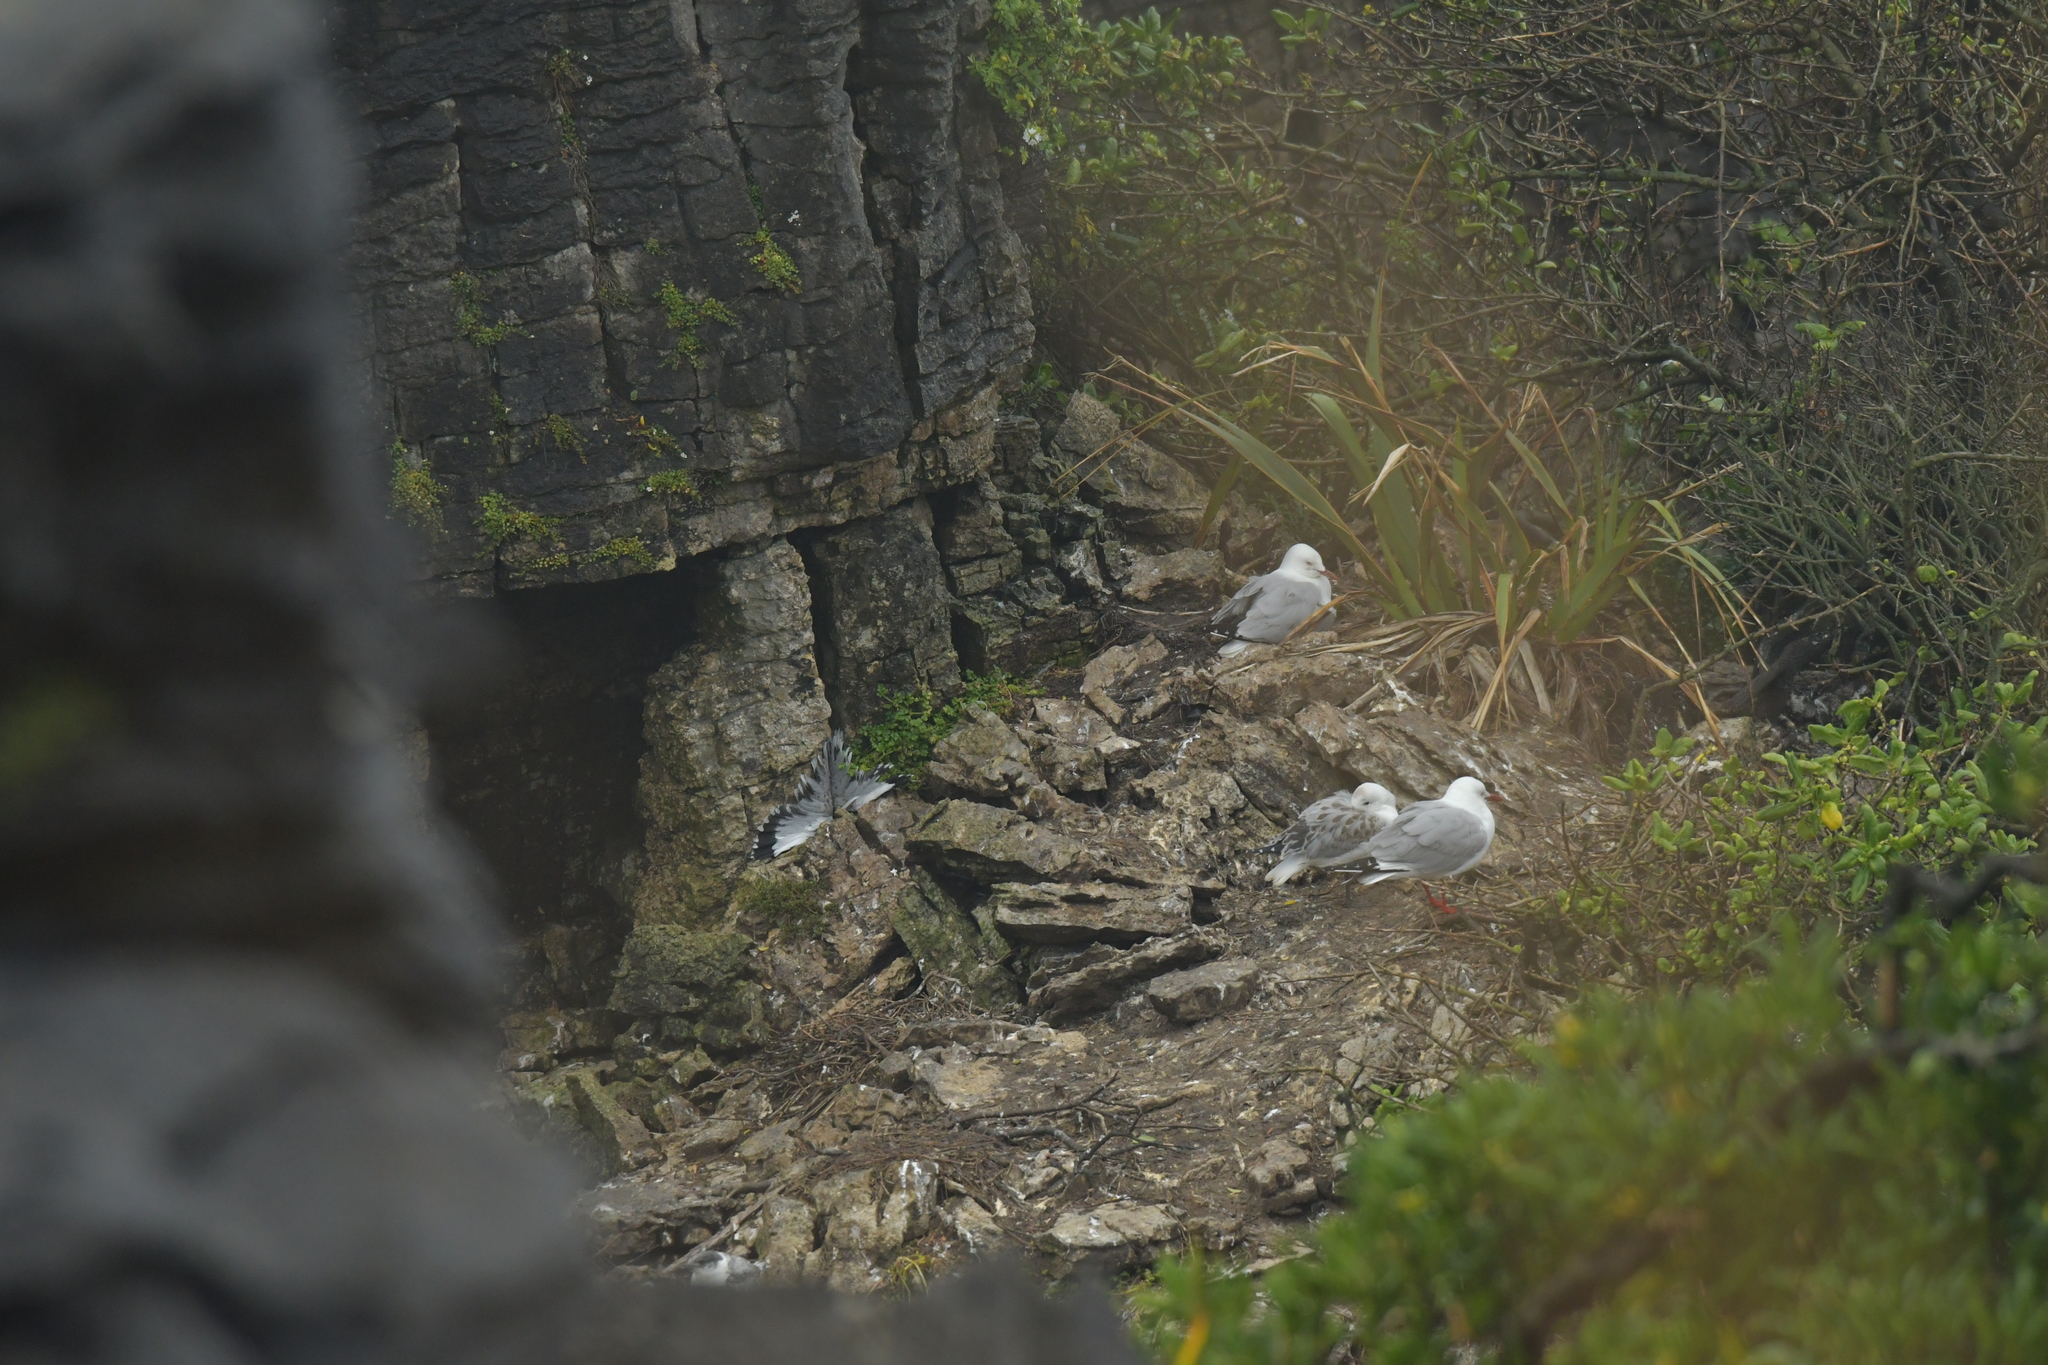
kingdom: Animalia
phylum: Chordata
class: Aves
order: Charadriiformes
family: Laridae
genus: Chroicocephalus
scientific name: Chroicocephalus novaehollandiae
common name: Silver gull
